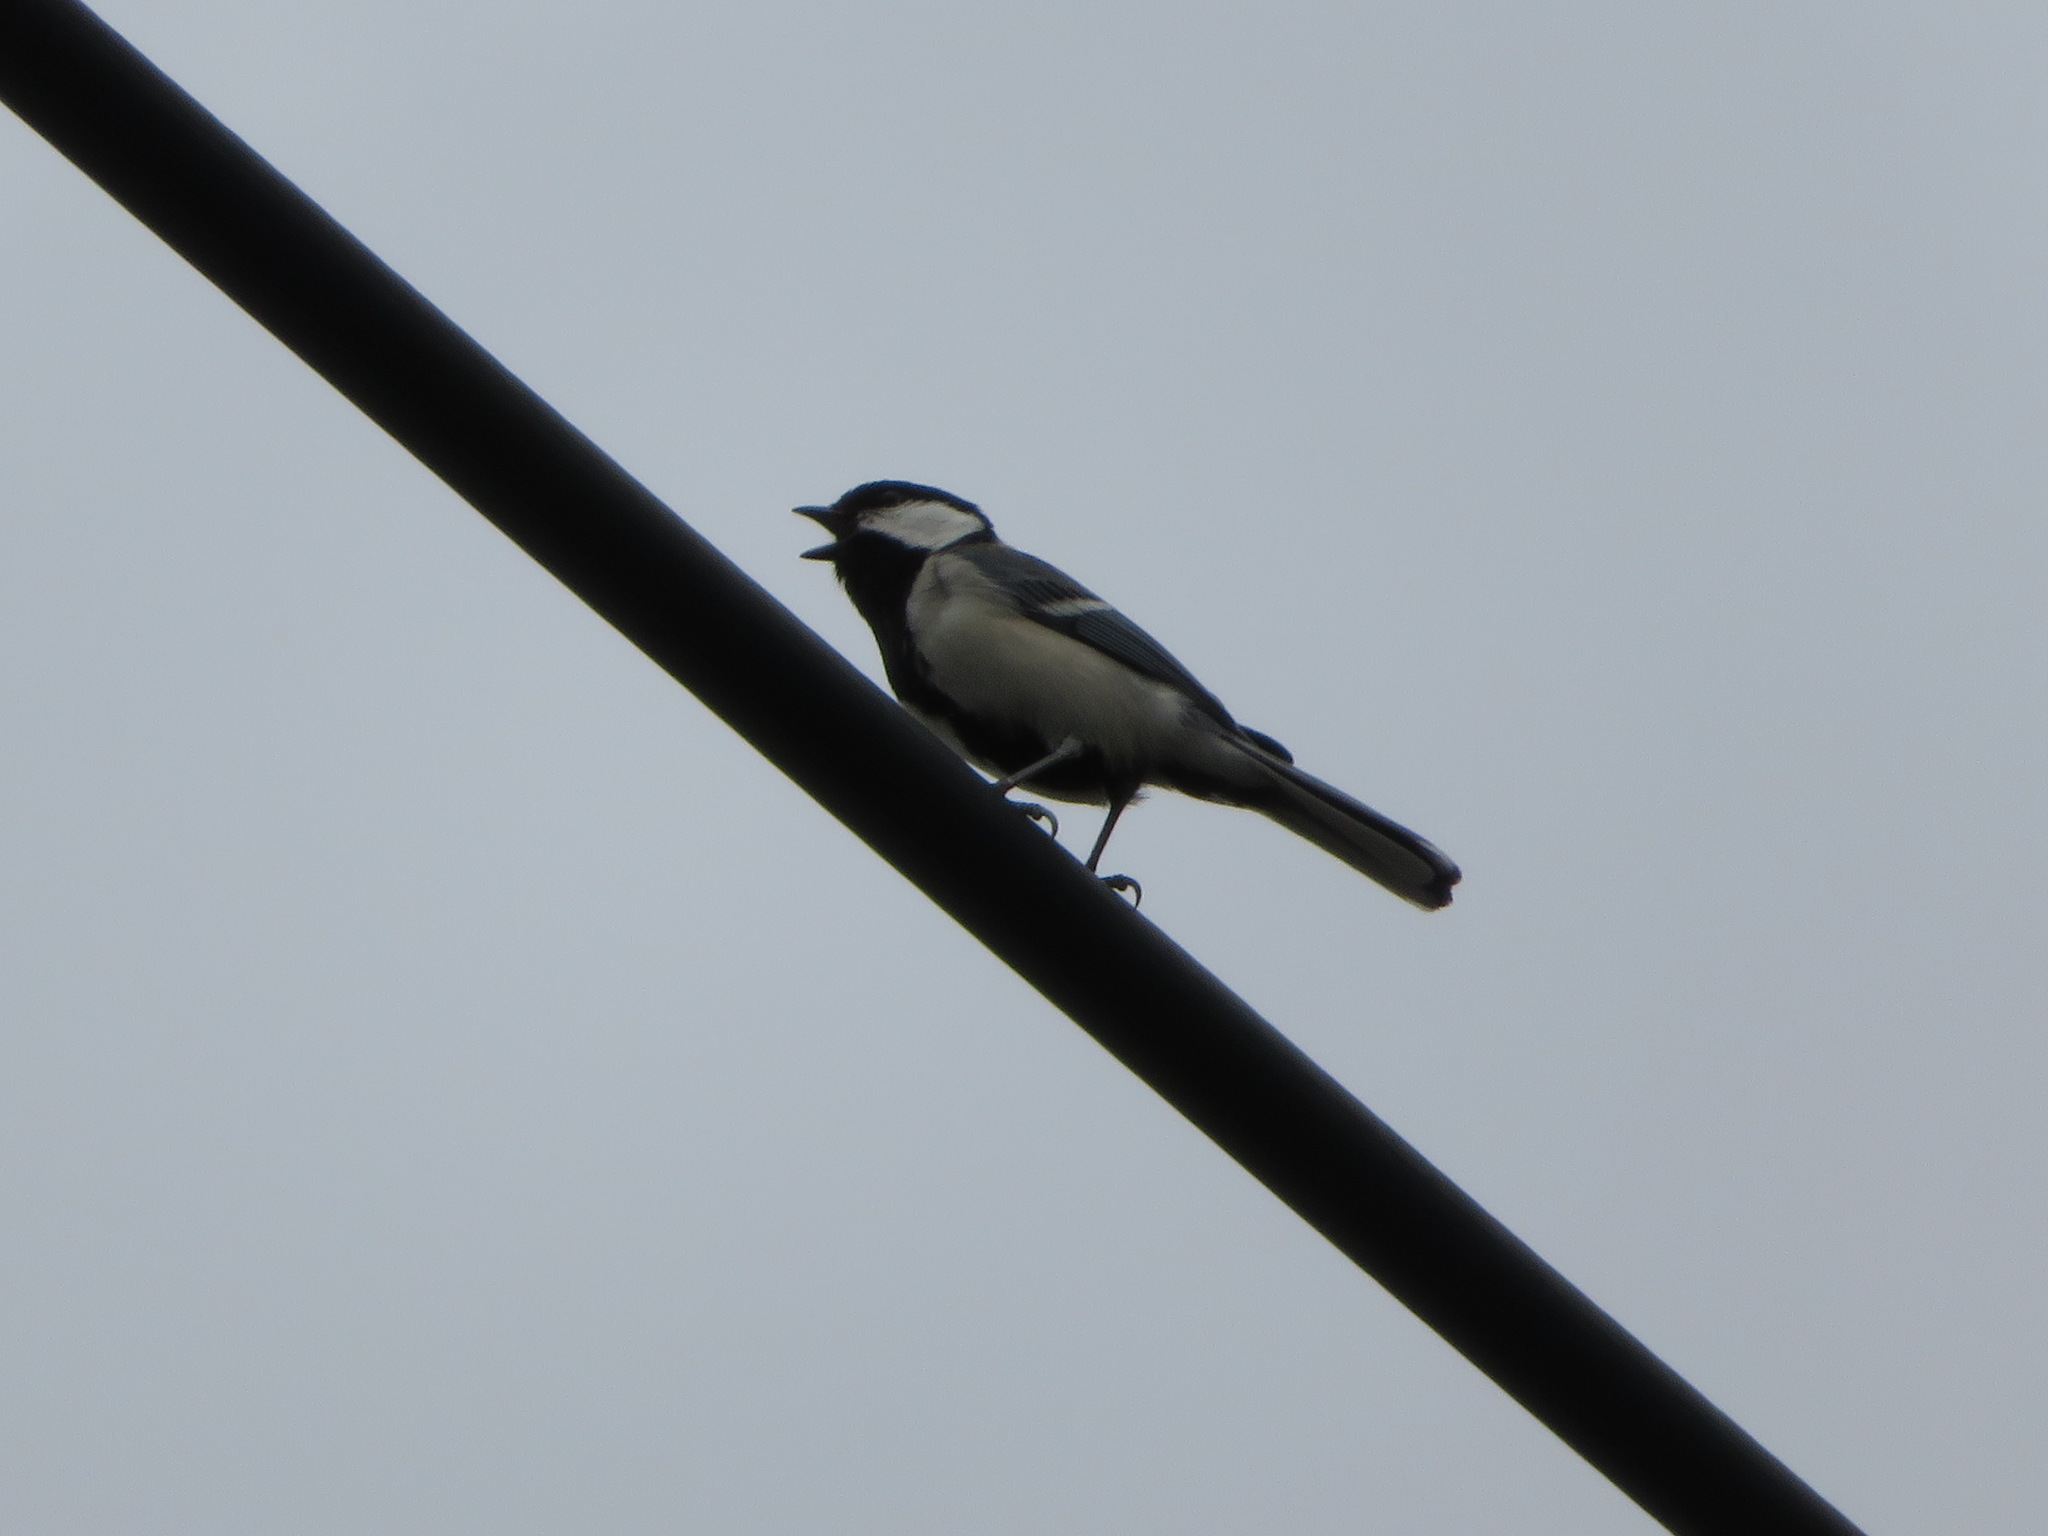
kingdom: Animalia
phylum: Chordata
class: Aves
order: Passeriformes
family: Paridae
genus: Parus
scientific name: Parus minor
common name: Japanese tit
